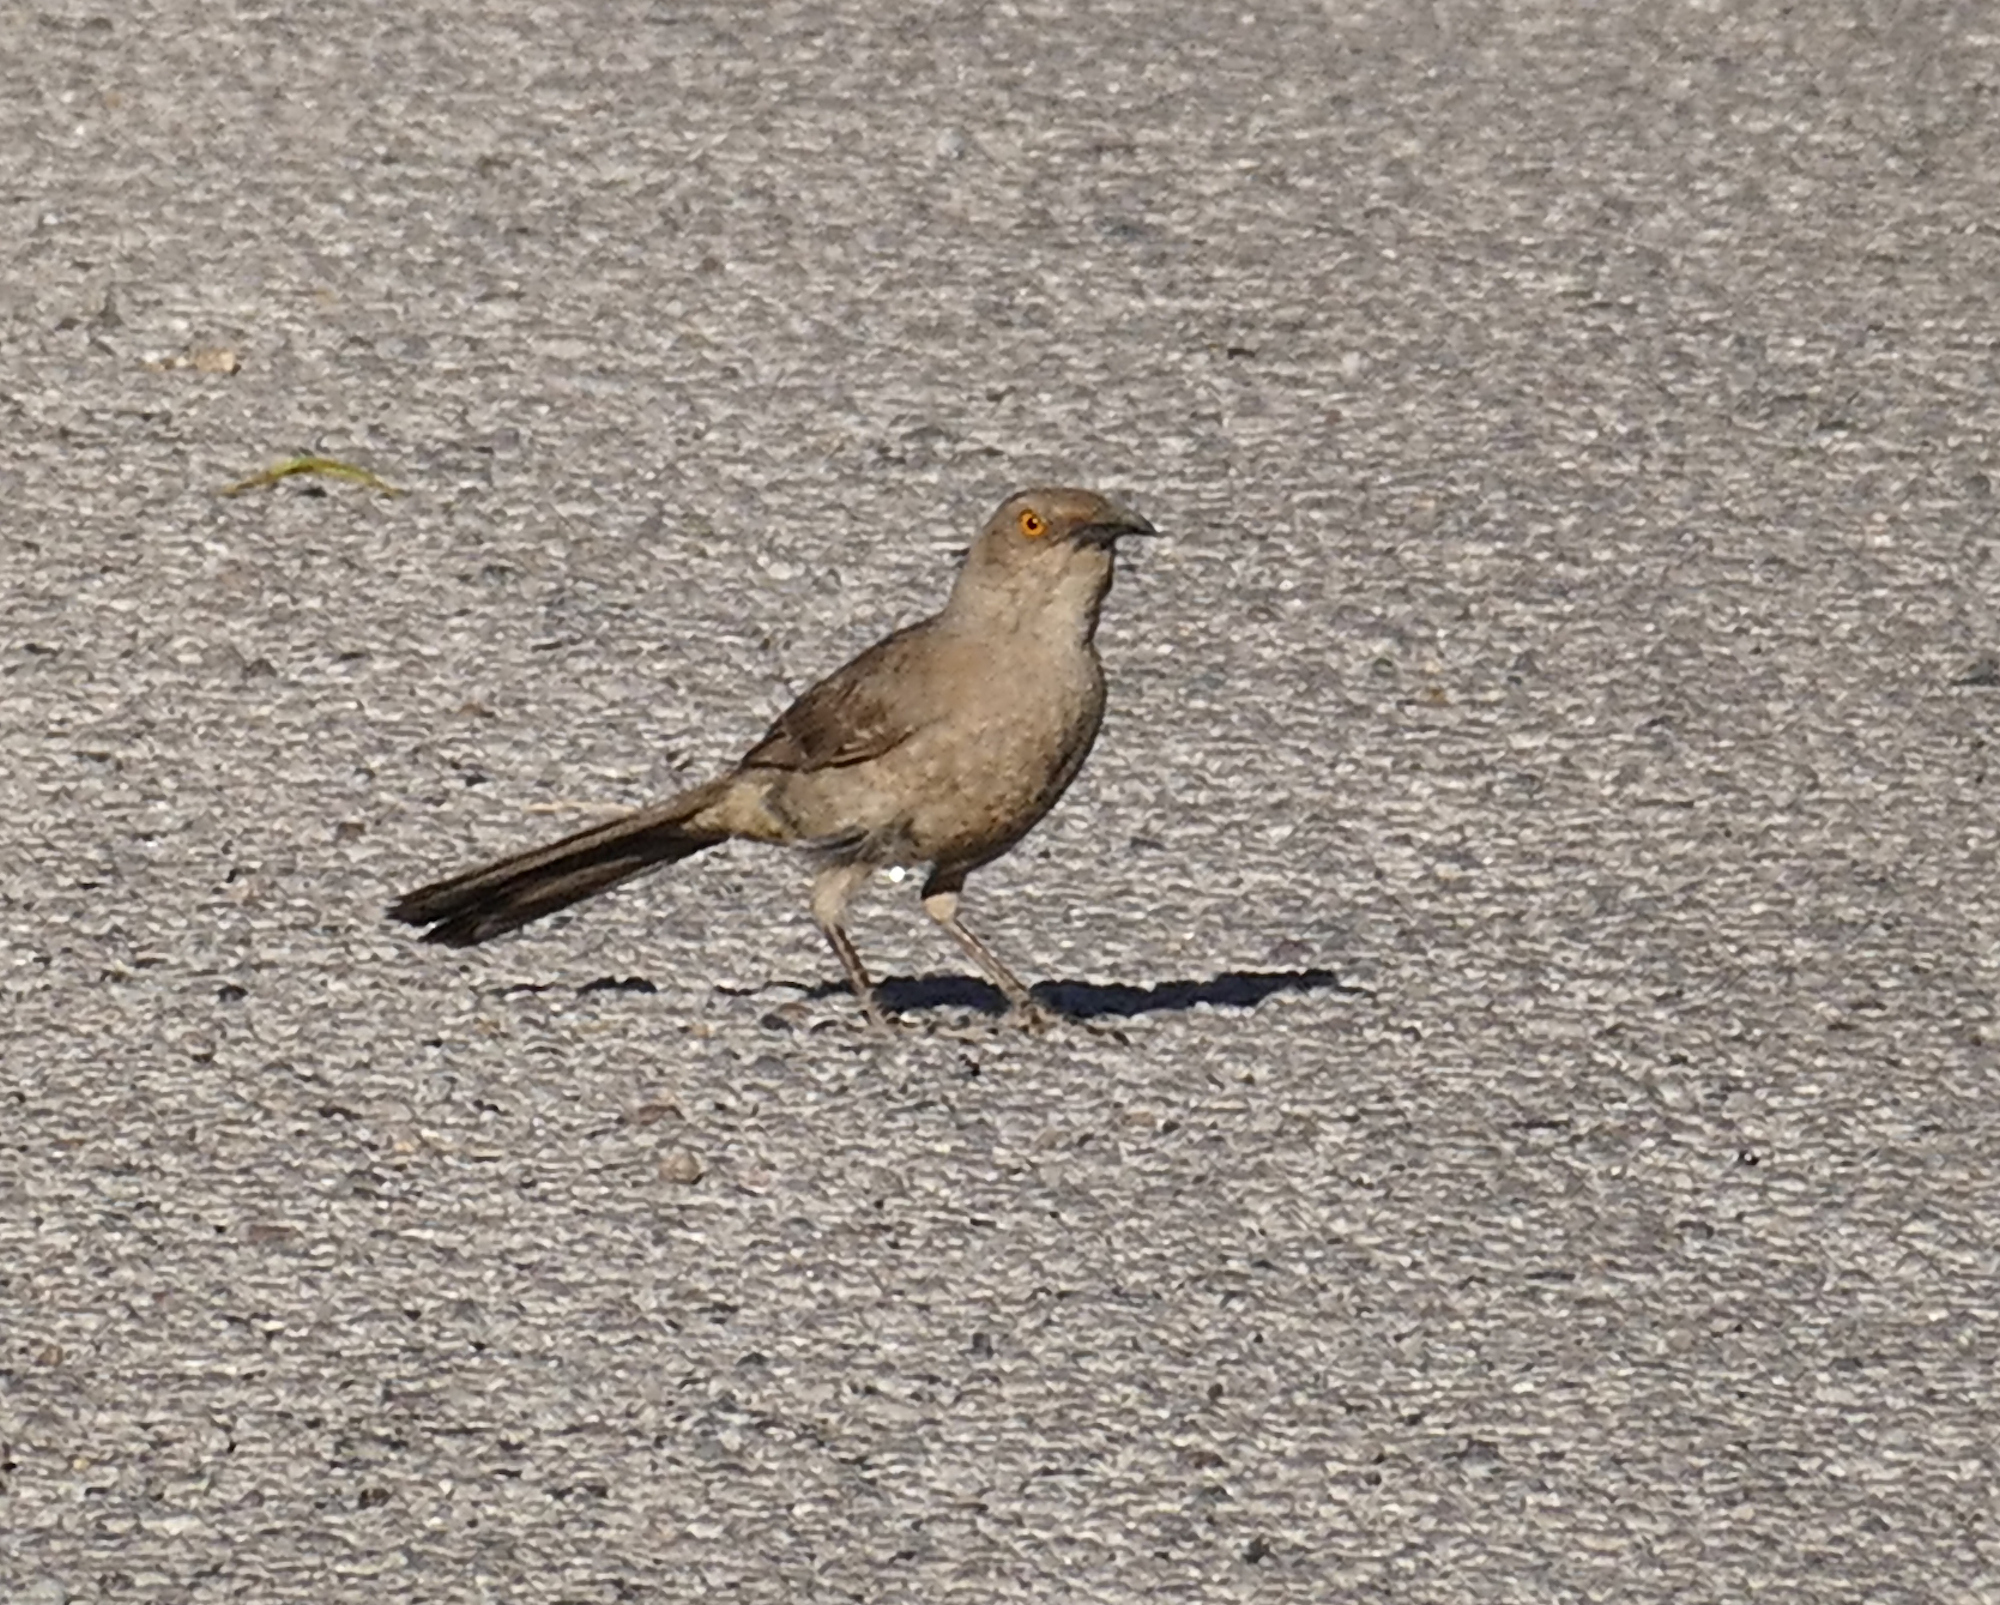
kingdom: Animalia
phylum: Chordata
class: Aves
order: Passeriformes
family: Mimidae
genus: Toxostoma
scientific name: Toxostoma curvirostre
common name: Curve-billed thrasher
